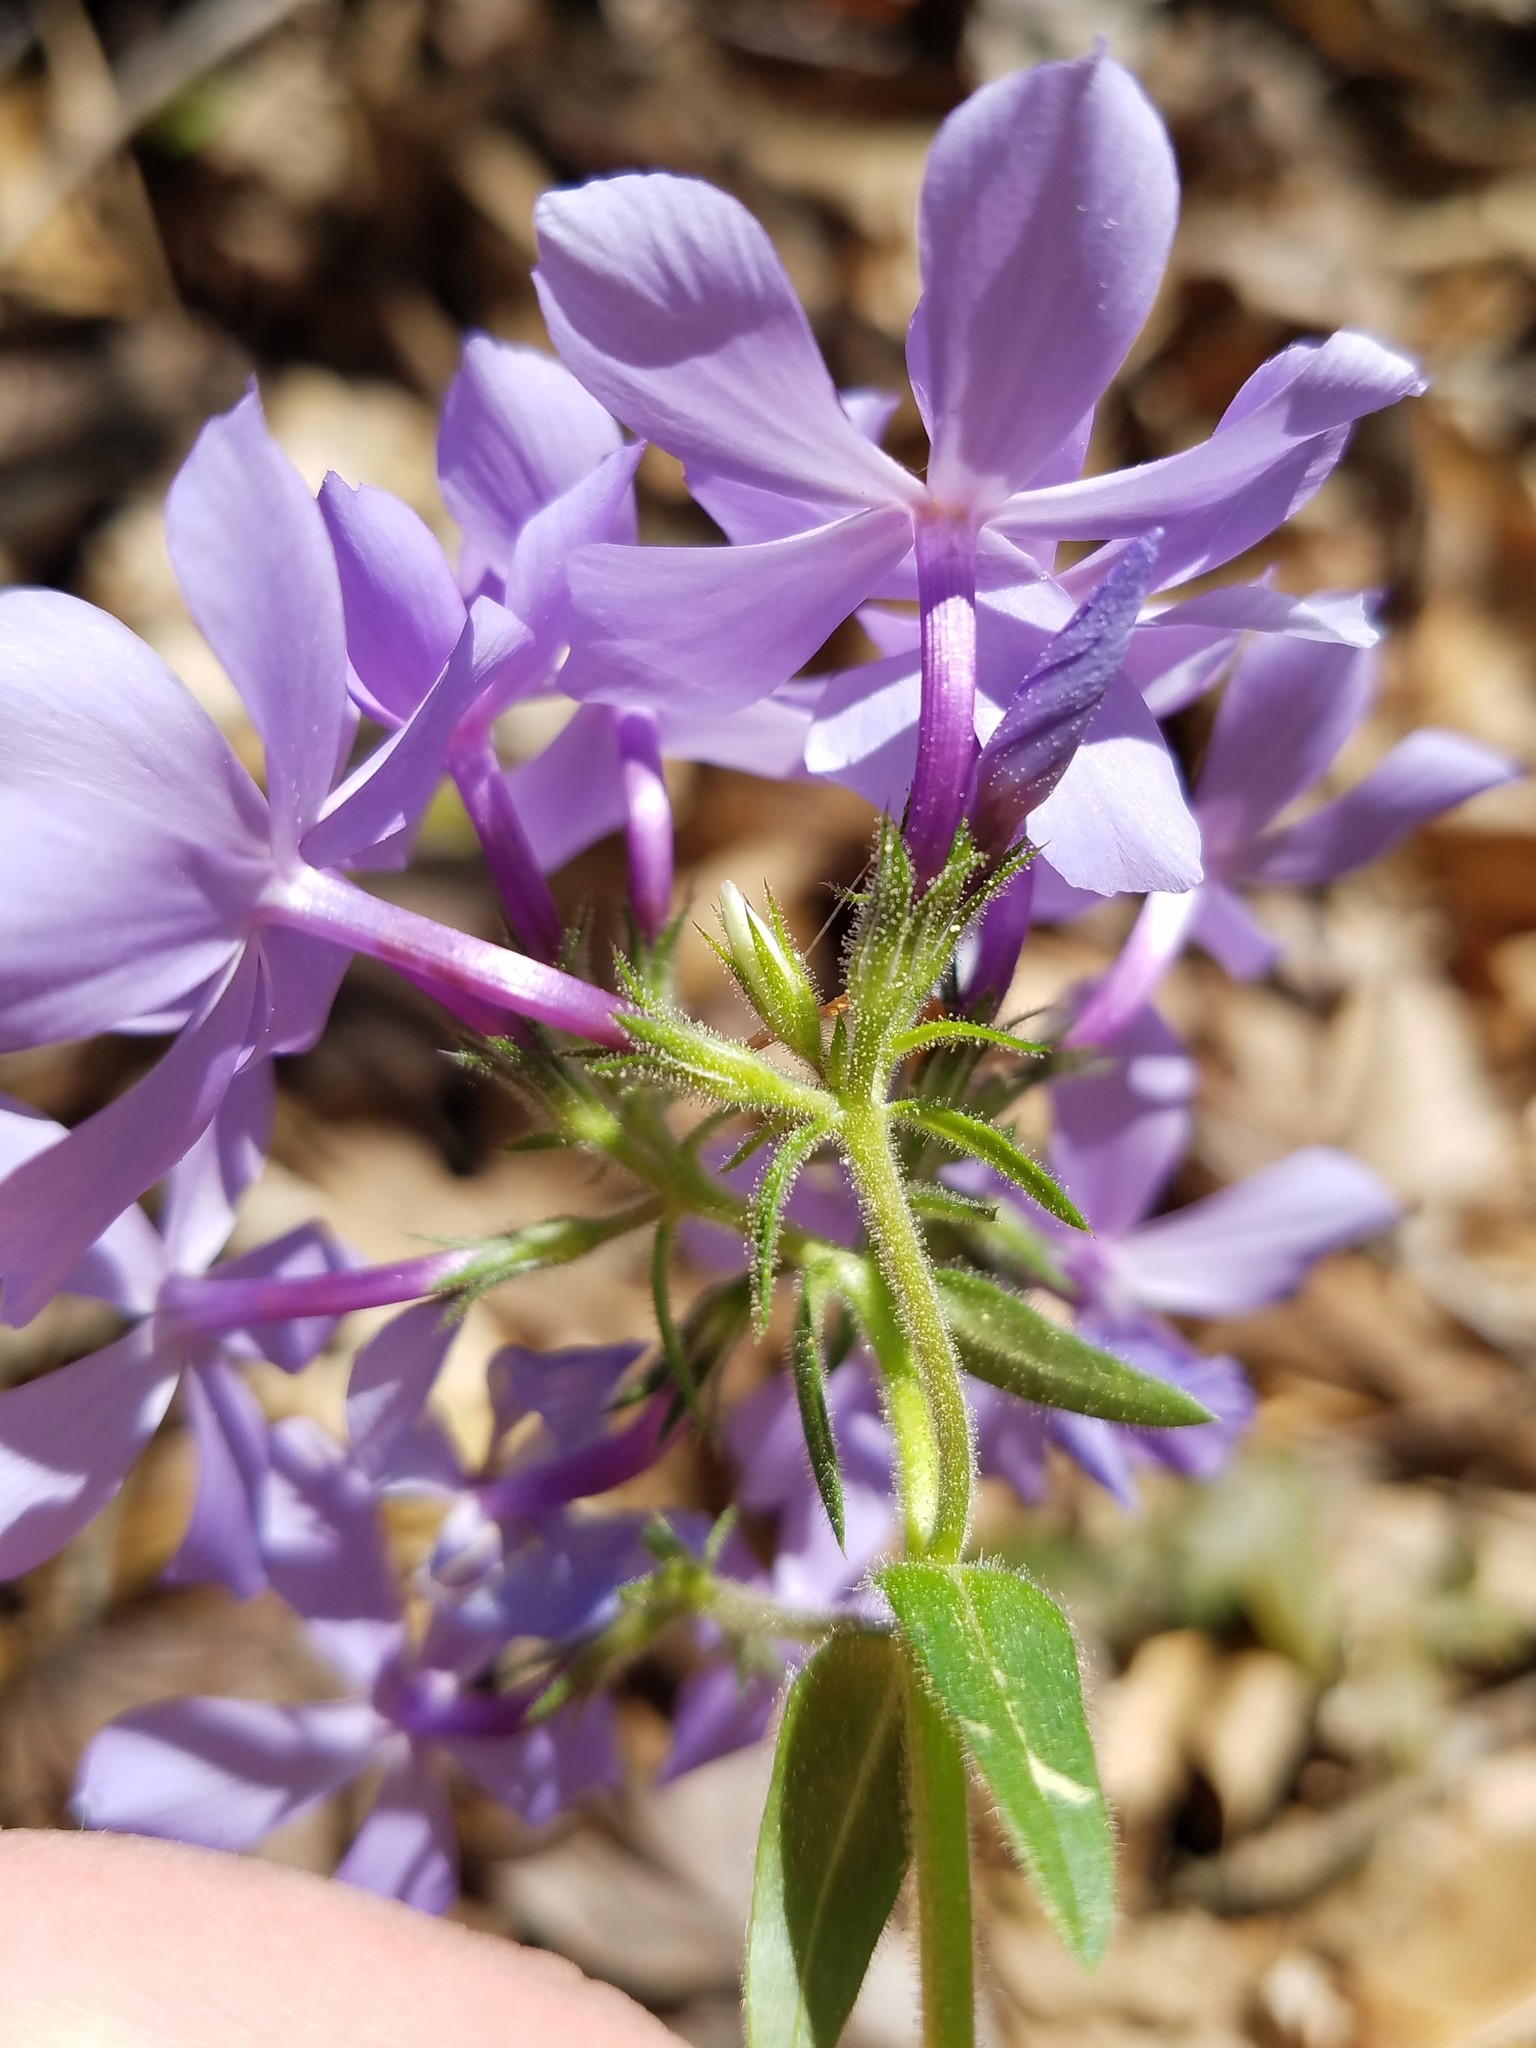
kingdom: Plantae
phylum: Tracheophyta
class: Magnoliopsida
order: Ericales
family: Polemoniaceae
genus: Phlox
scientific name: Phlox divaricata
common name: Blue phlox
